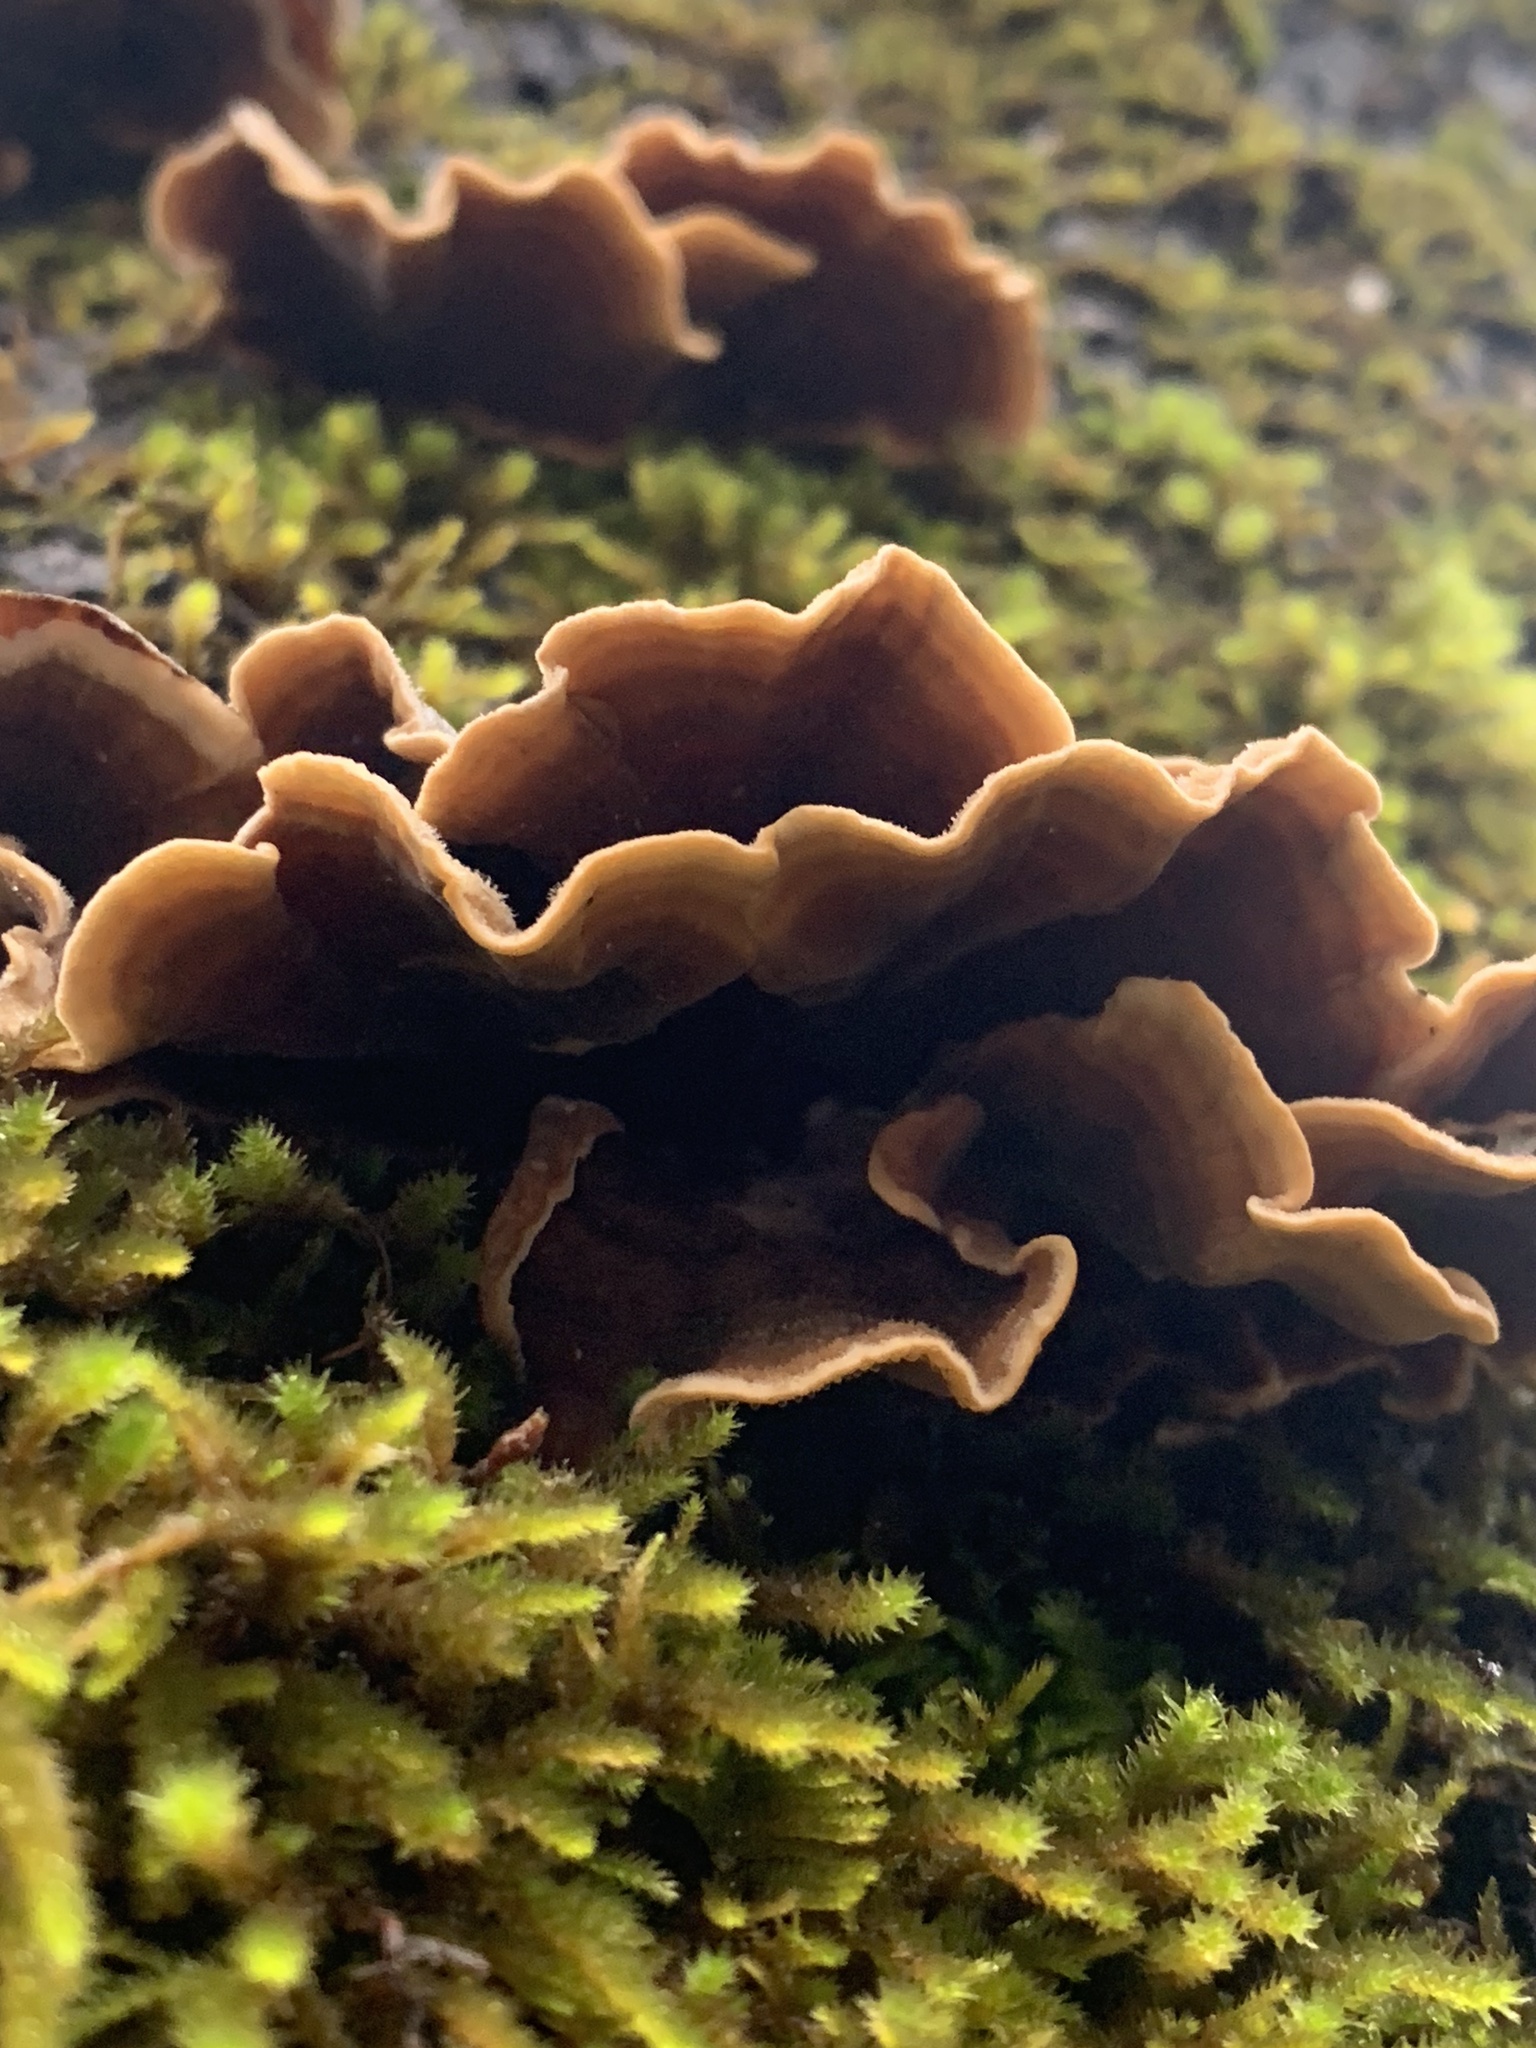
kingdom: Fungi
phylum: Basidiomycota
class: Agaricomycetes
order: Russulales
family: Stereaceae
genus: Stereum
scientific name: Stereum hirsutum
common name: Hairy curtain crust
